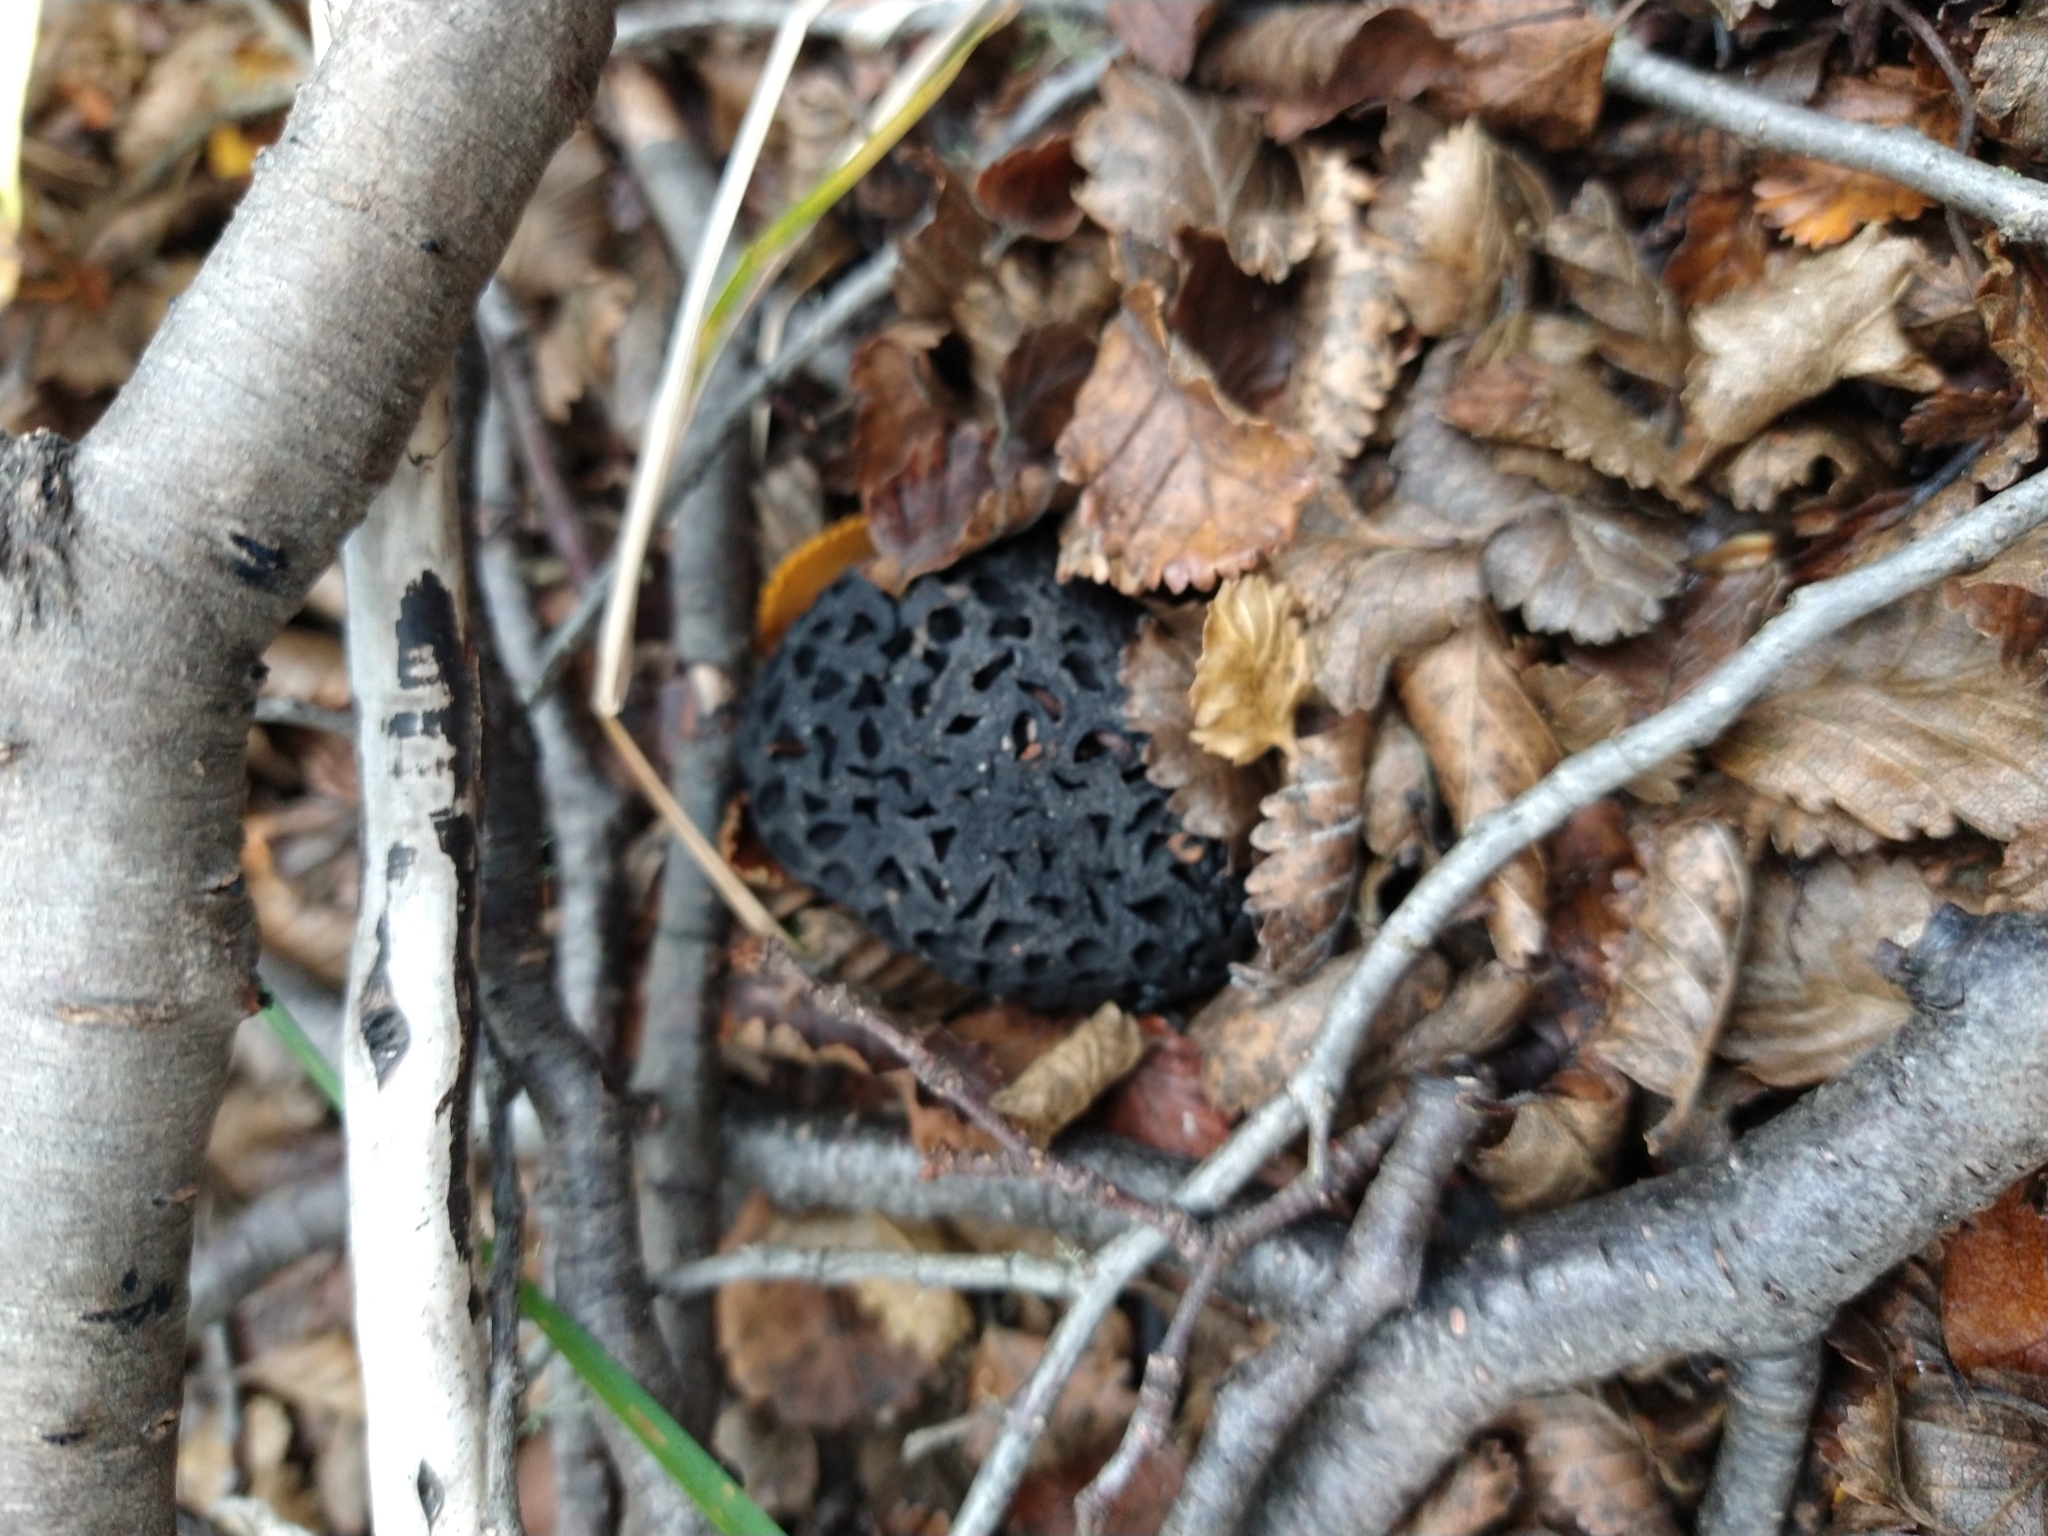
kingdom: Fungi
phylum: Ascomycota
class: Leotiomycetes
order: Cyttariales
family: Cyttariaceae
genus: Cyttaria
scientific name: Cyttaria
